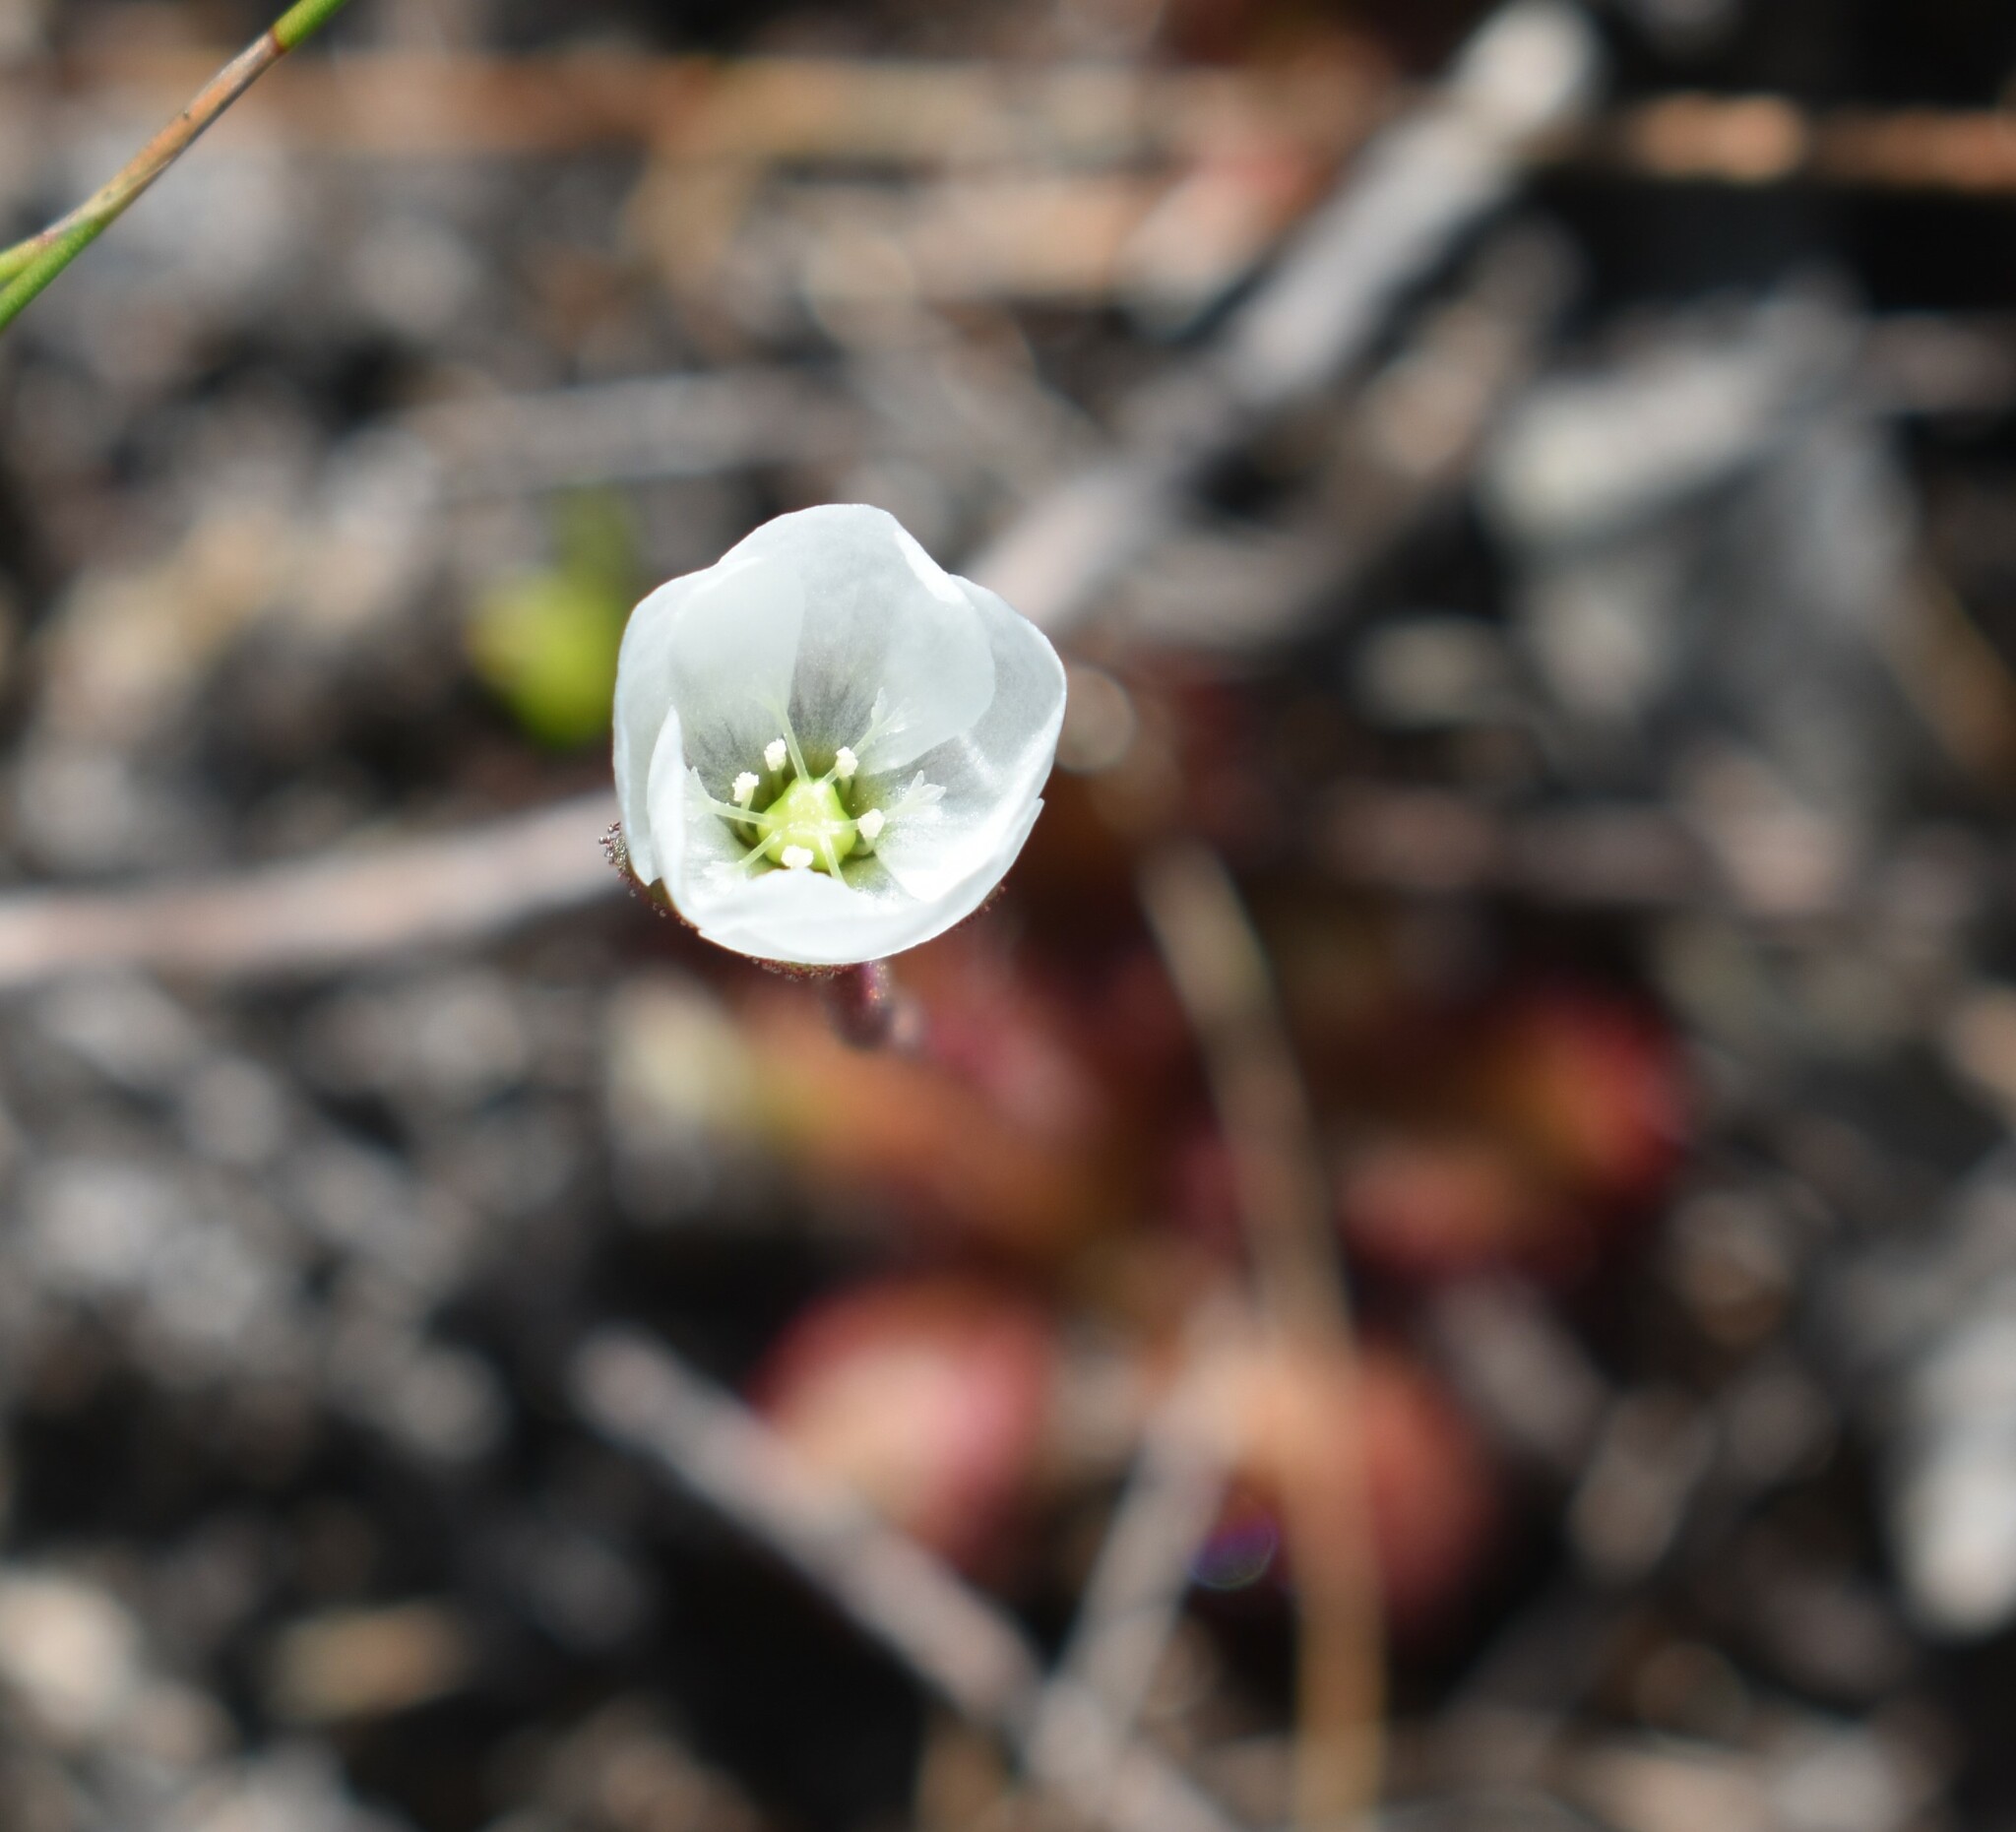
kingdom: Plantae
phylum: Tracheophyta
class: Magnoliopsida
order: Caryophyllales
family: Droseraceae
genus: Drosera
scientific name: Drosera trinervia
